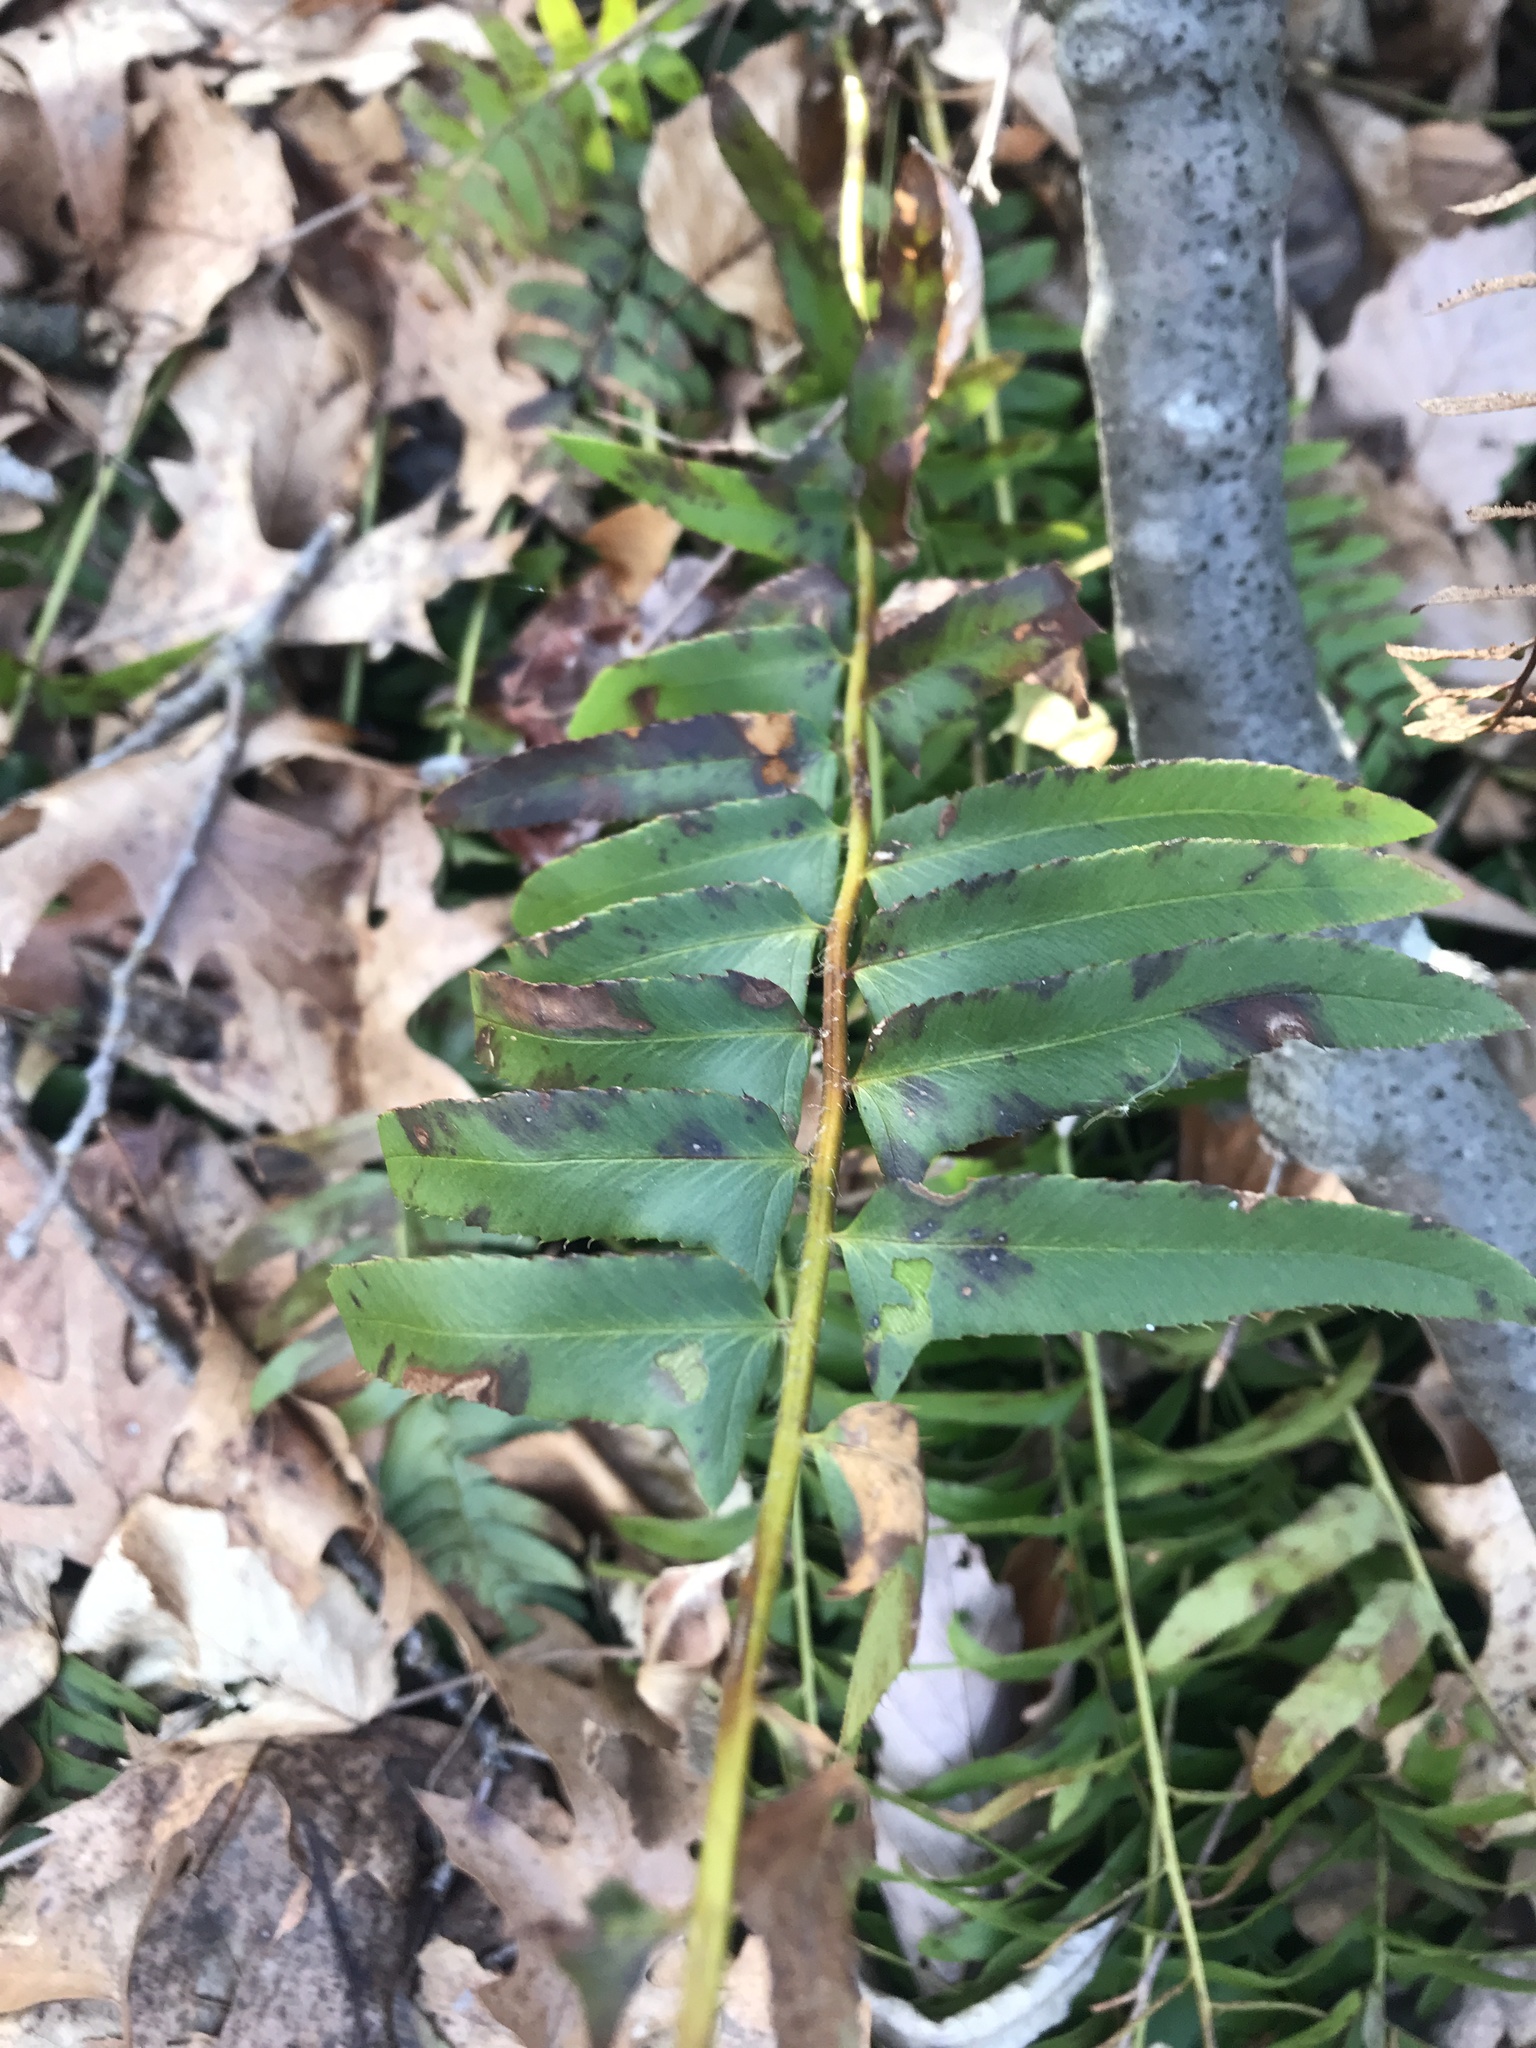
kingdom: Plantae
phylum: Tracheophyta
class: Polypodiopsida
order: Polypodiales
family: Dryopteridaceae
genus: Polystichum
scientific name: Polystichum acrostichoides
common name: Christmas fern
